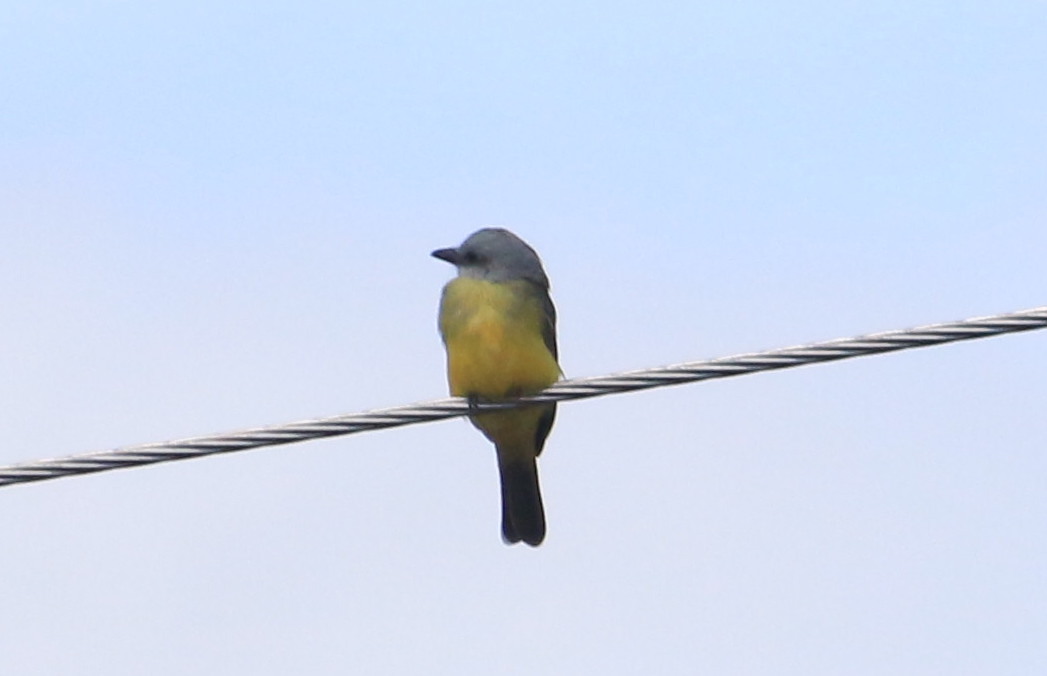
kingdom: Animalia
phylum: Chordata
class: Aves
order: Passeriformes
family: Tyrannidae
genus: Tyrannus
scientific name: Tyrannus melancholicus
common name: Tropical kingbird
